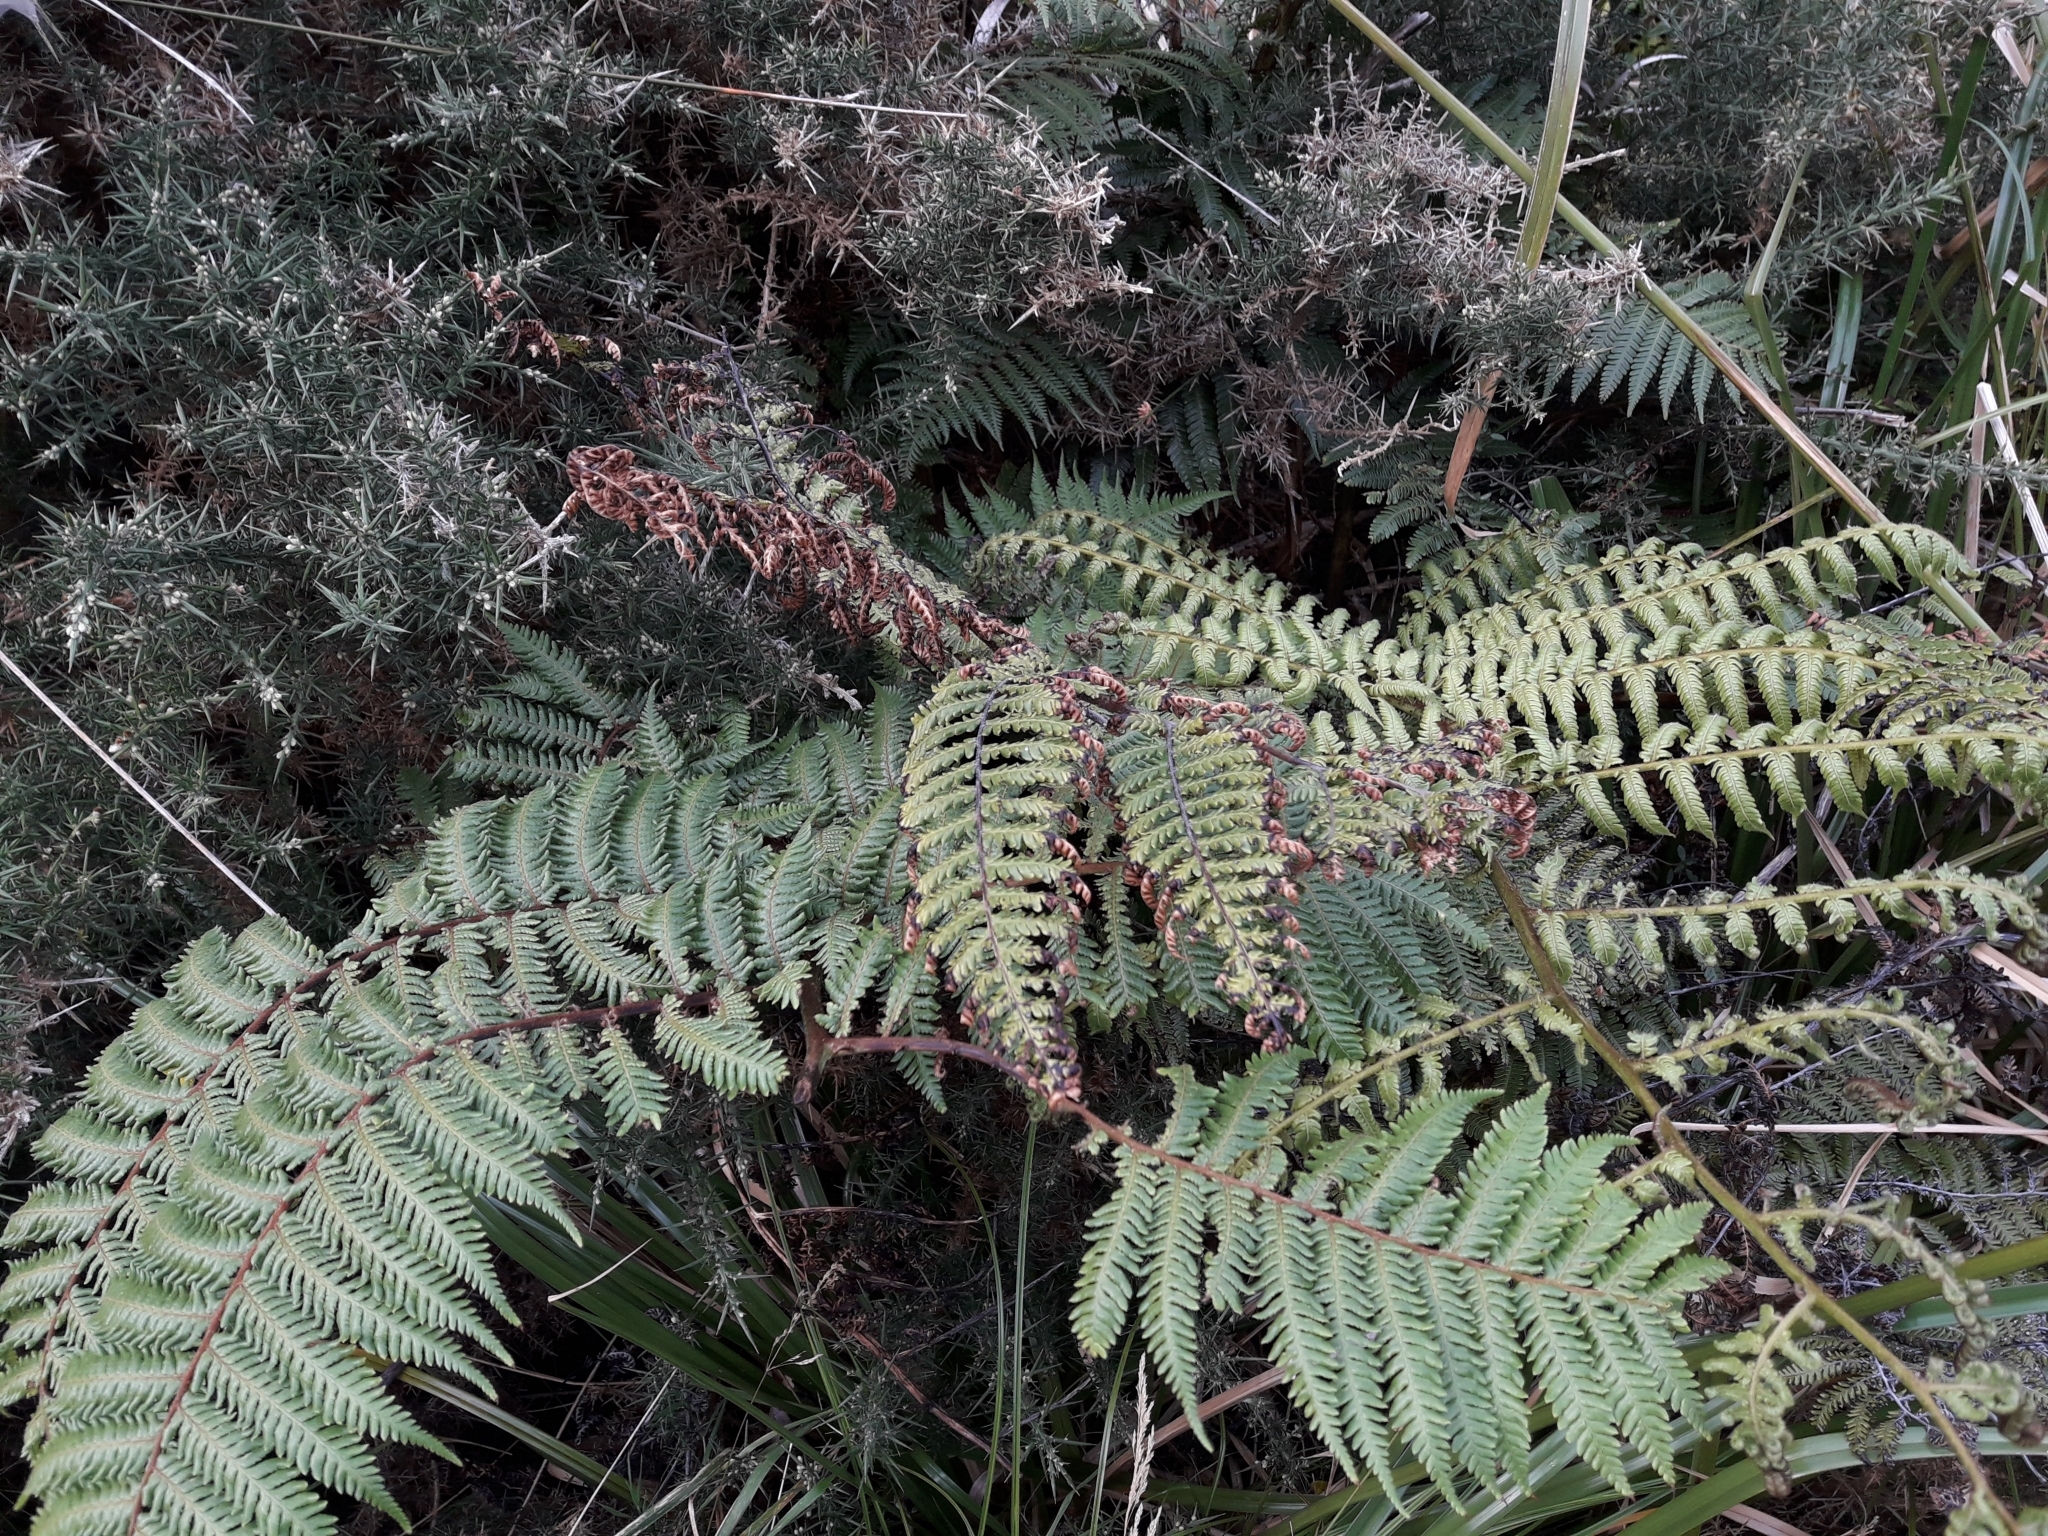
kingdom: Plantae
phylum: Tracheophyta
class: Polypodiopsida
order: Cyatheales
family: Cyatheaceae
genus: Sphaeropteris
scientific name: Sphaeropteris medullaris
